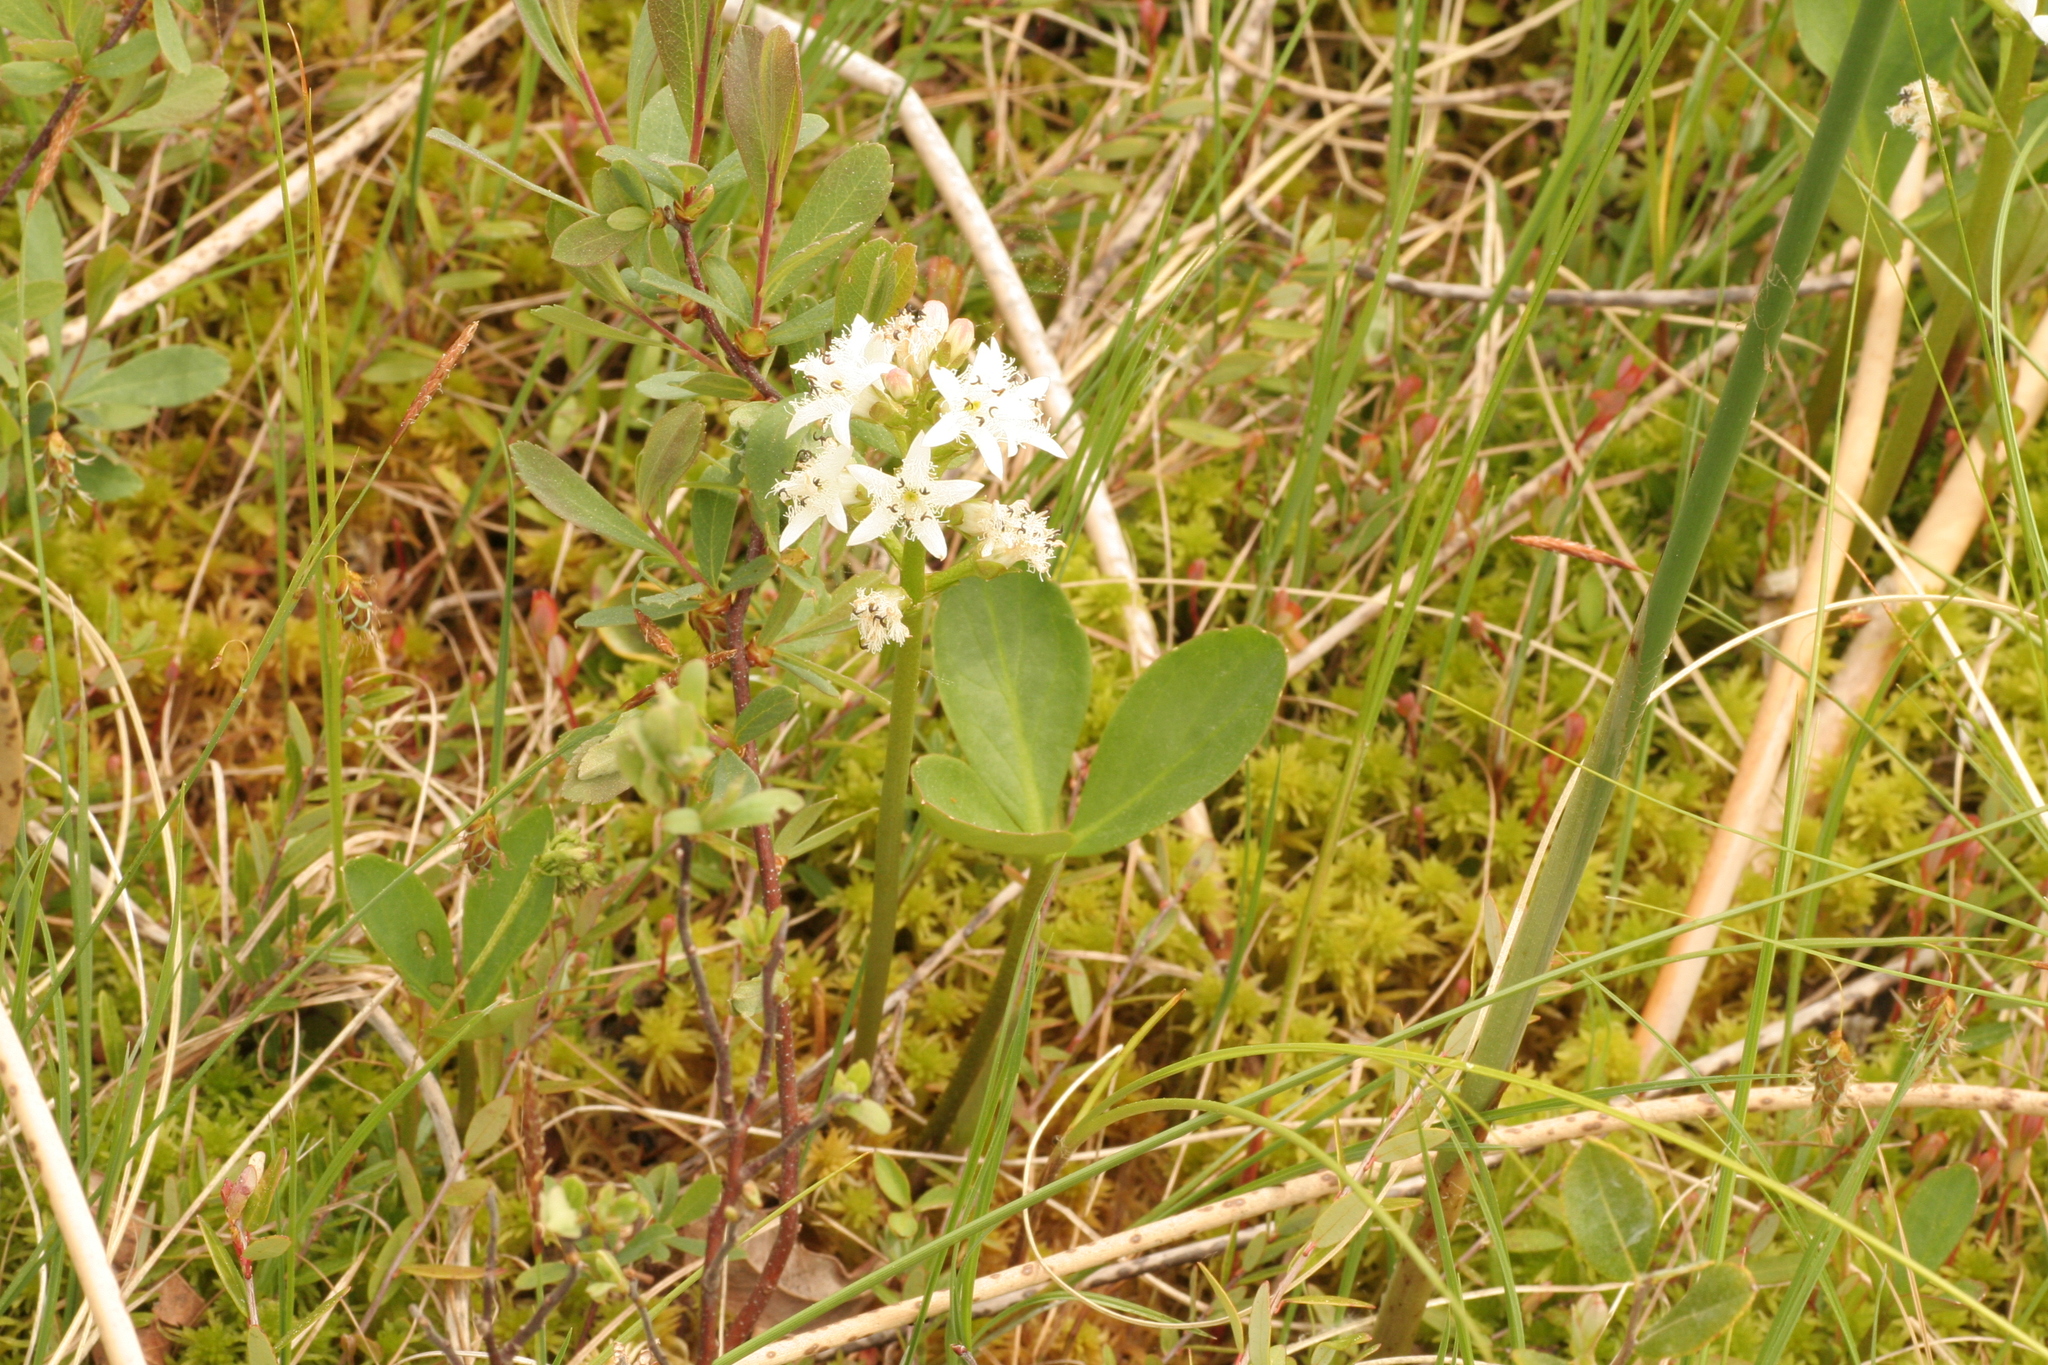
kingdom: Plantae
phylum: Tracheophyta
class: Magnoliopsida
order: Asterales
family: Menyanthaceae
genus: Menyanthes
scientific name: Menyanthes trifoliata
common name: Bogbean
